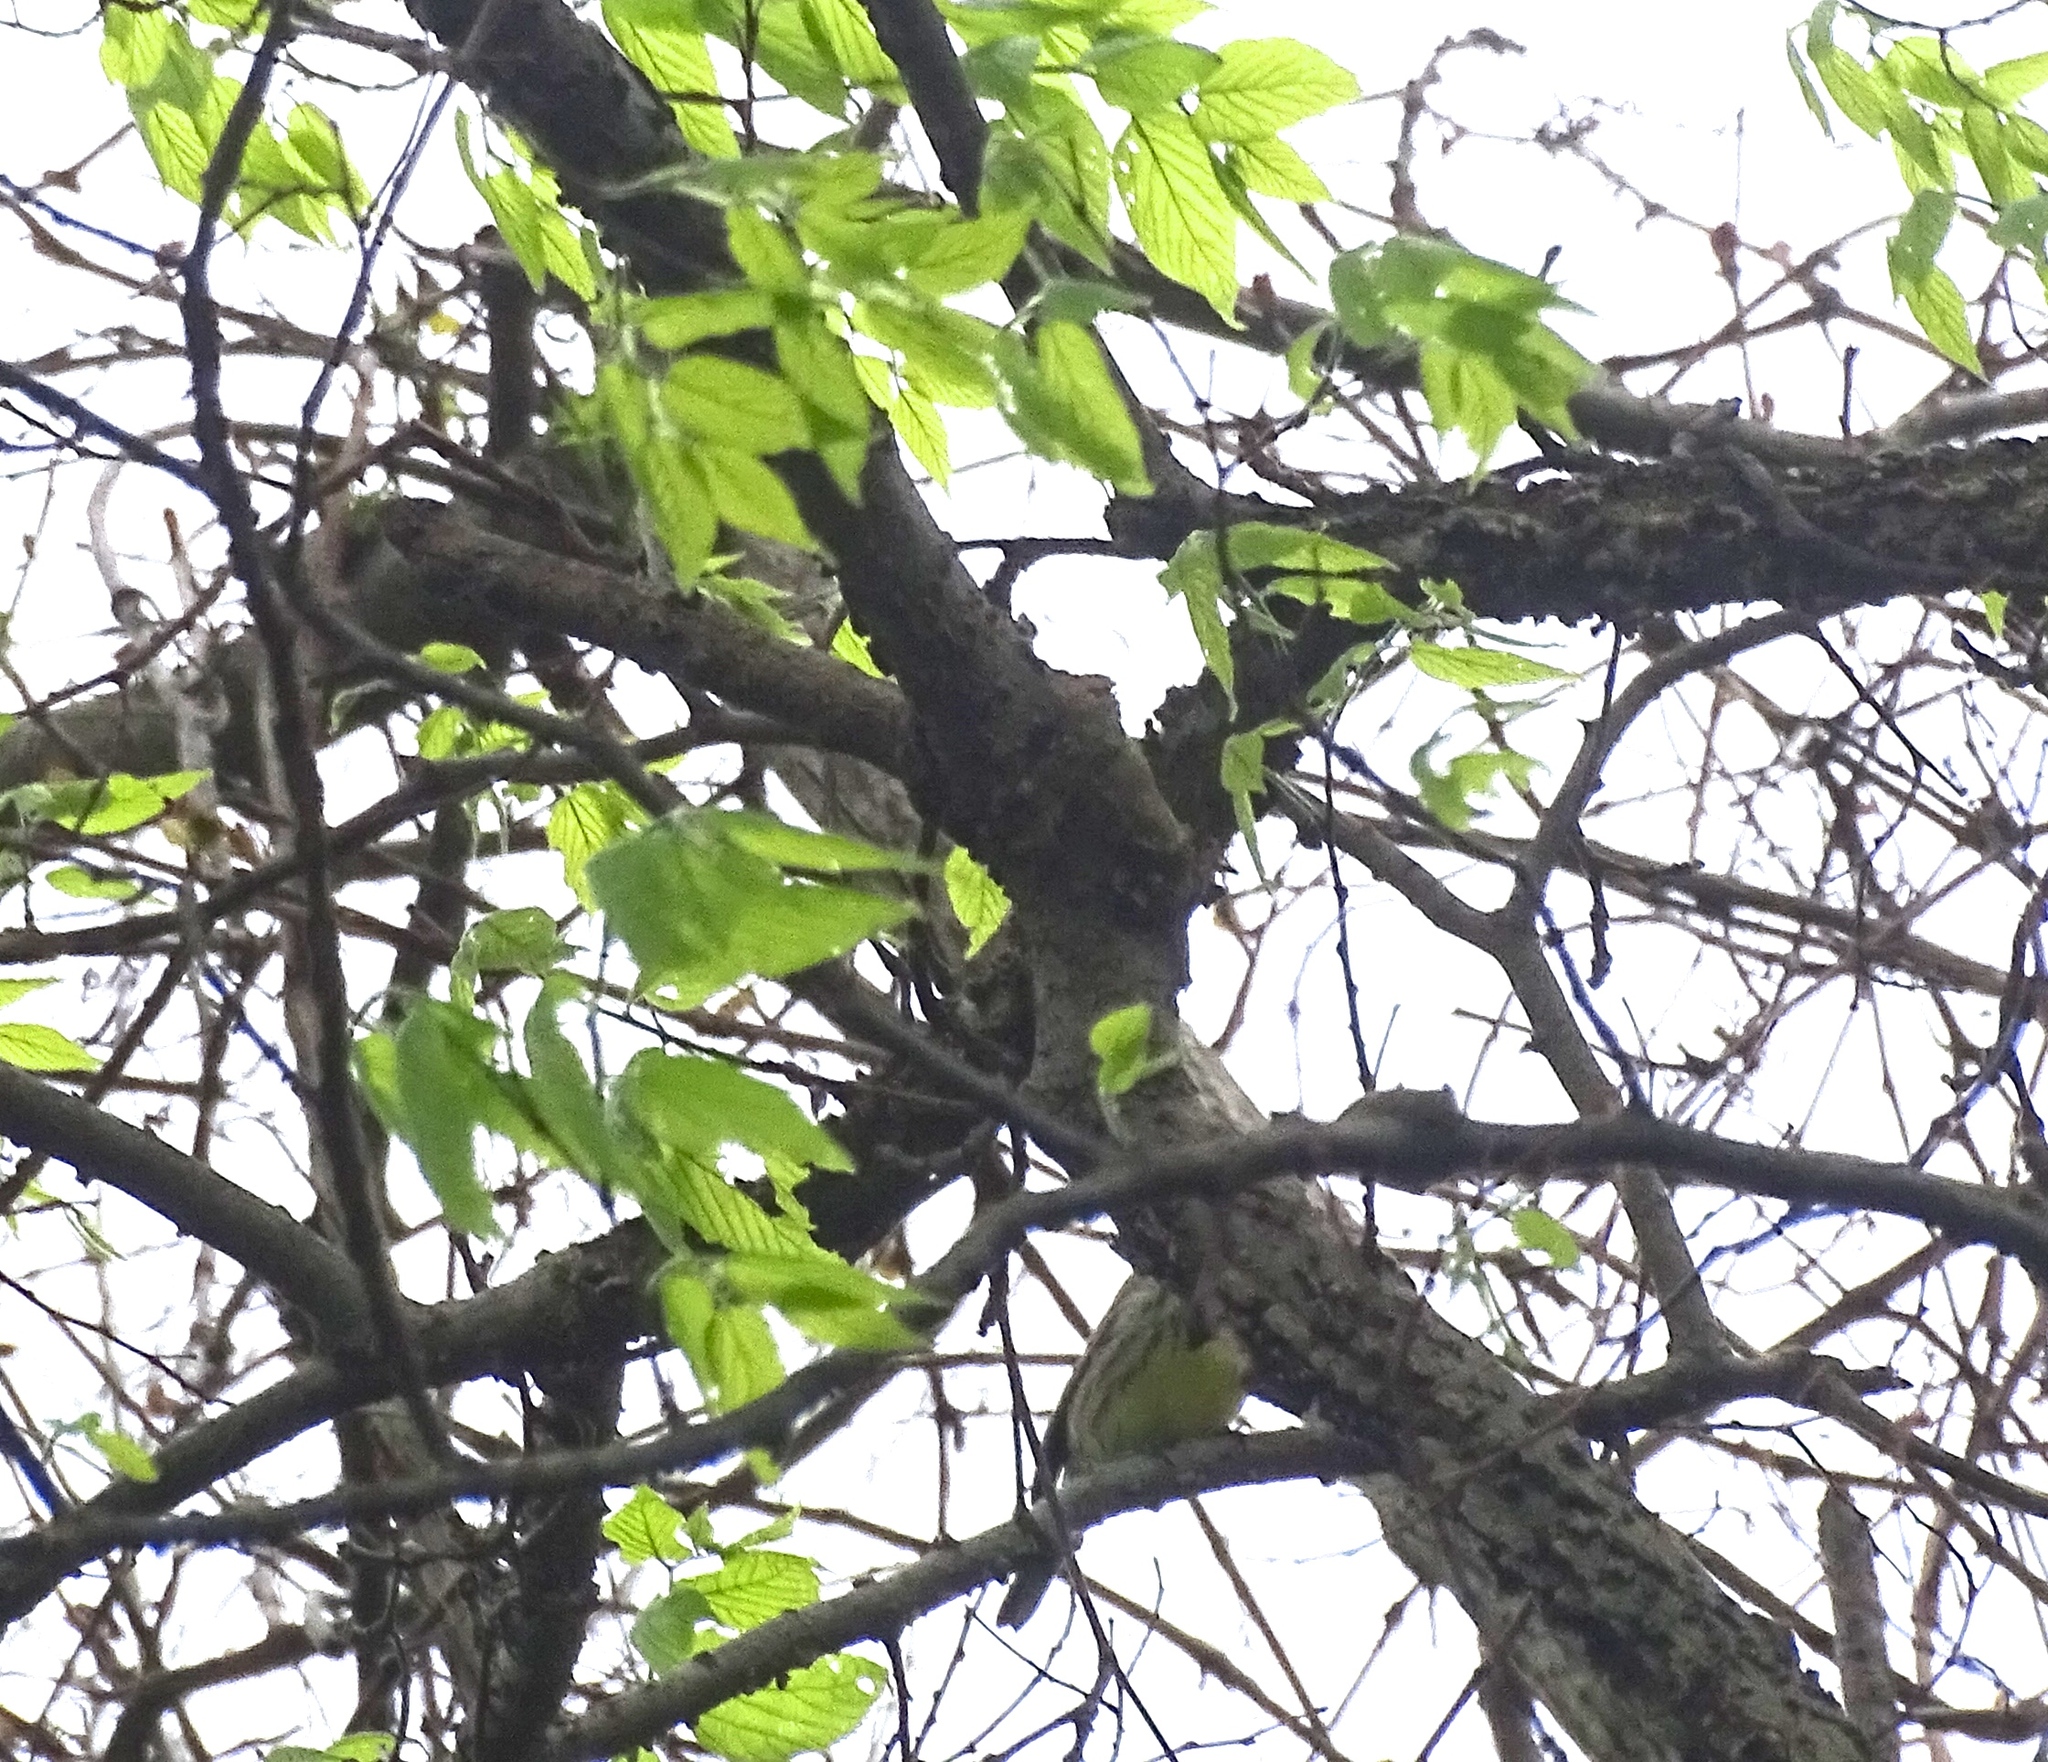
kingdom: Animalia
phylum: Chordata
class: Aves
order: Passeriformes
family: Parulidae
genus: Setophaga
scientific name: Setophaga kirtlandii
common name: Kirtland's warbler
